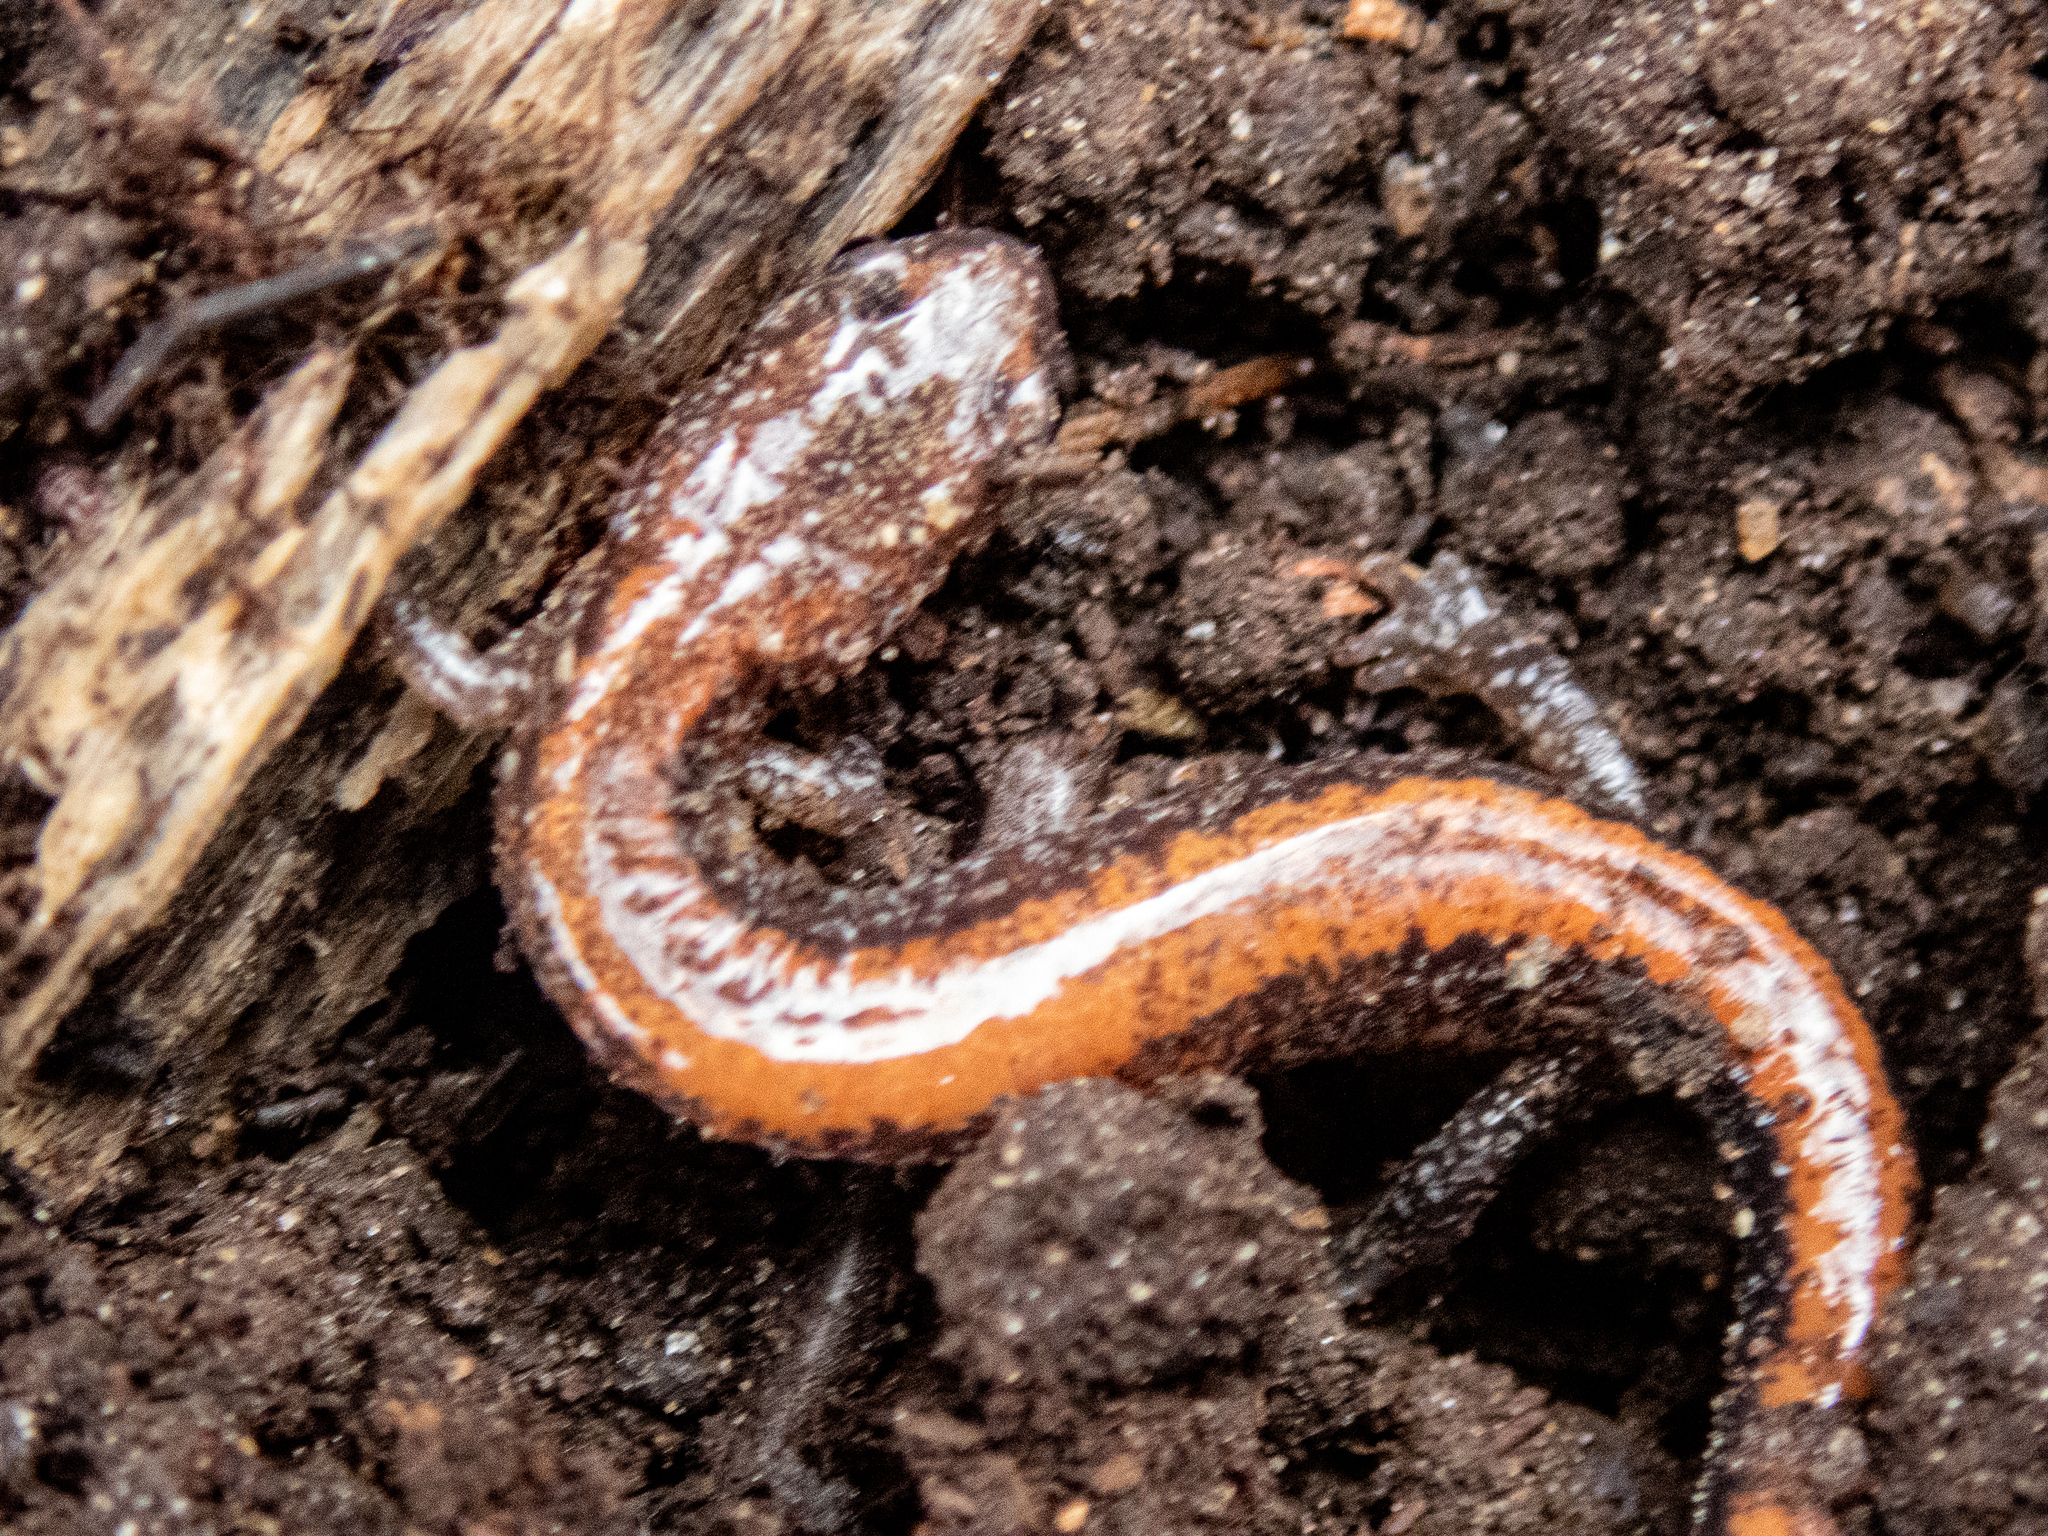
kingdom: Animalia
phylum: Chordata
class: Amphibia
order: Caudata
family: Plethodontidae
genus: Plethodon
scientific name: Plethodon cinereus
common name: Redback salamander
